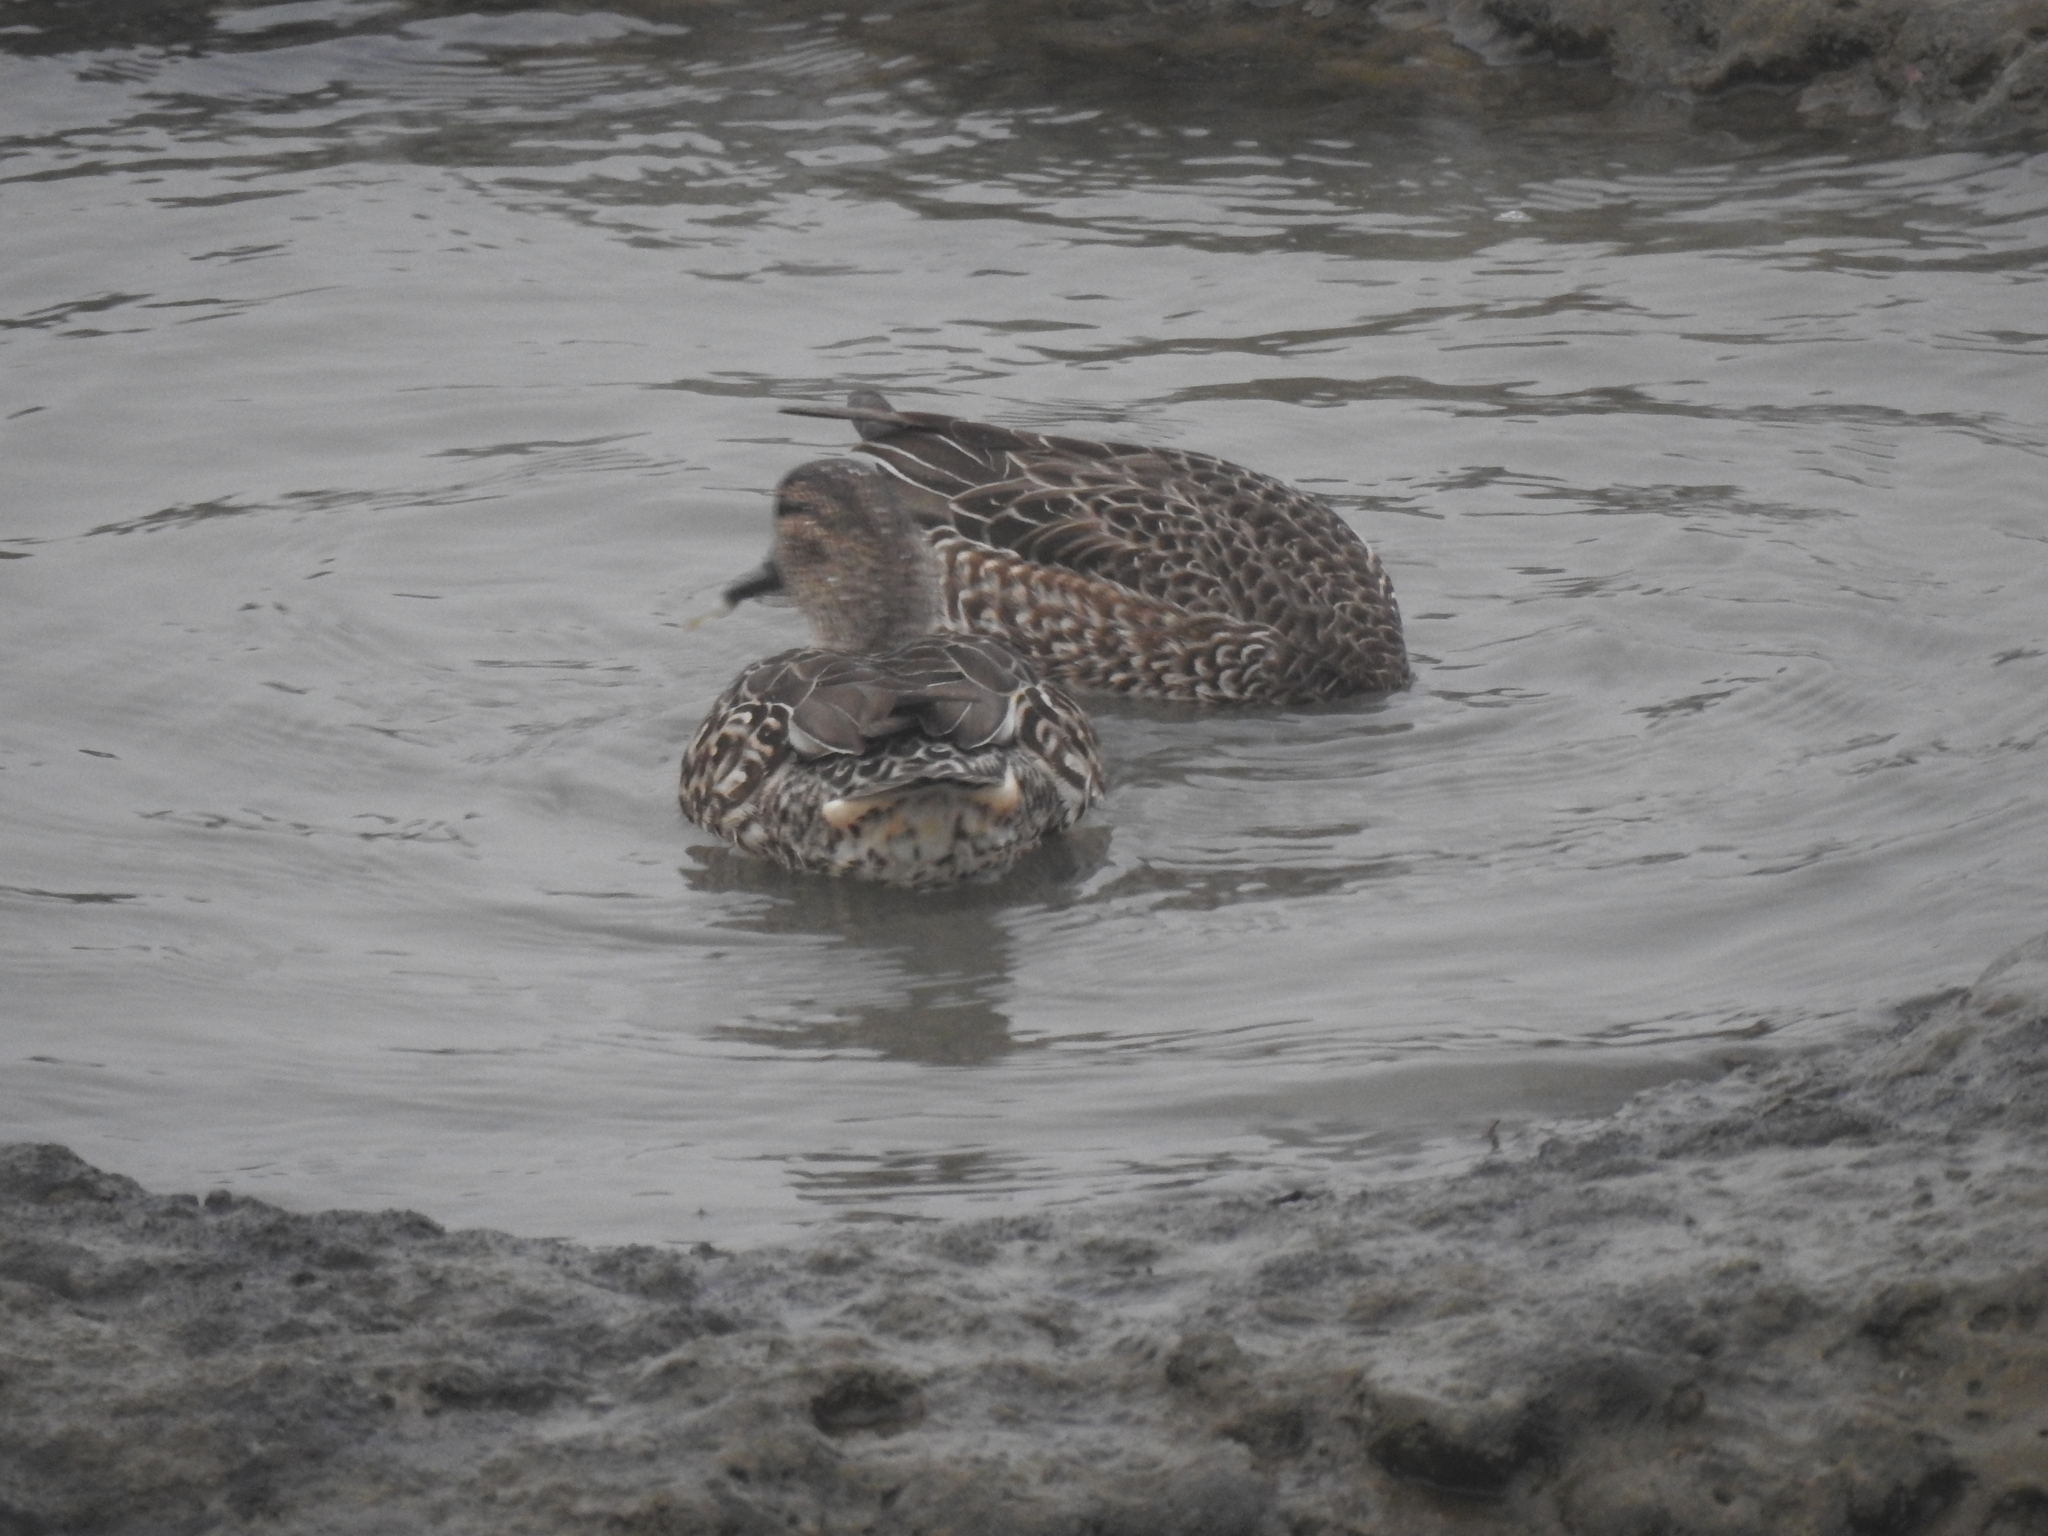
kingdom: Animalia
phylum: Chordata
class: Aves
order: Anseriformes
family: Anatidae
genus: Anas
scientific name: Anas crecca
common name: Eurasian teal
